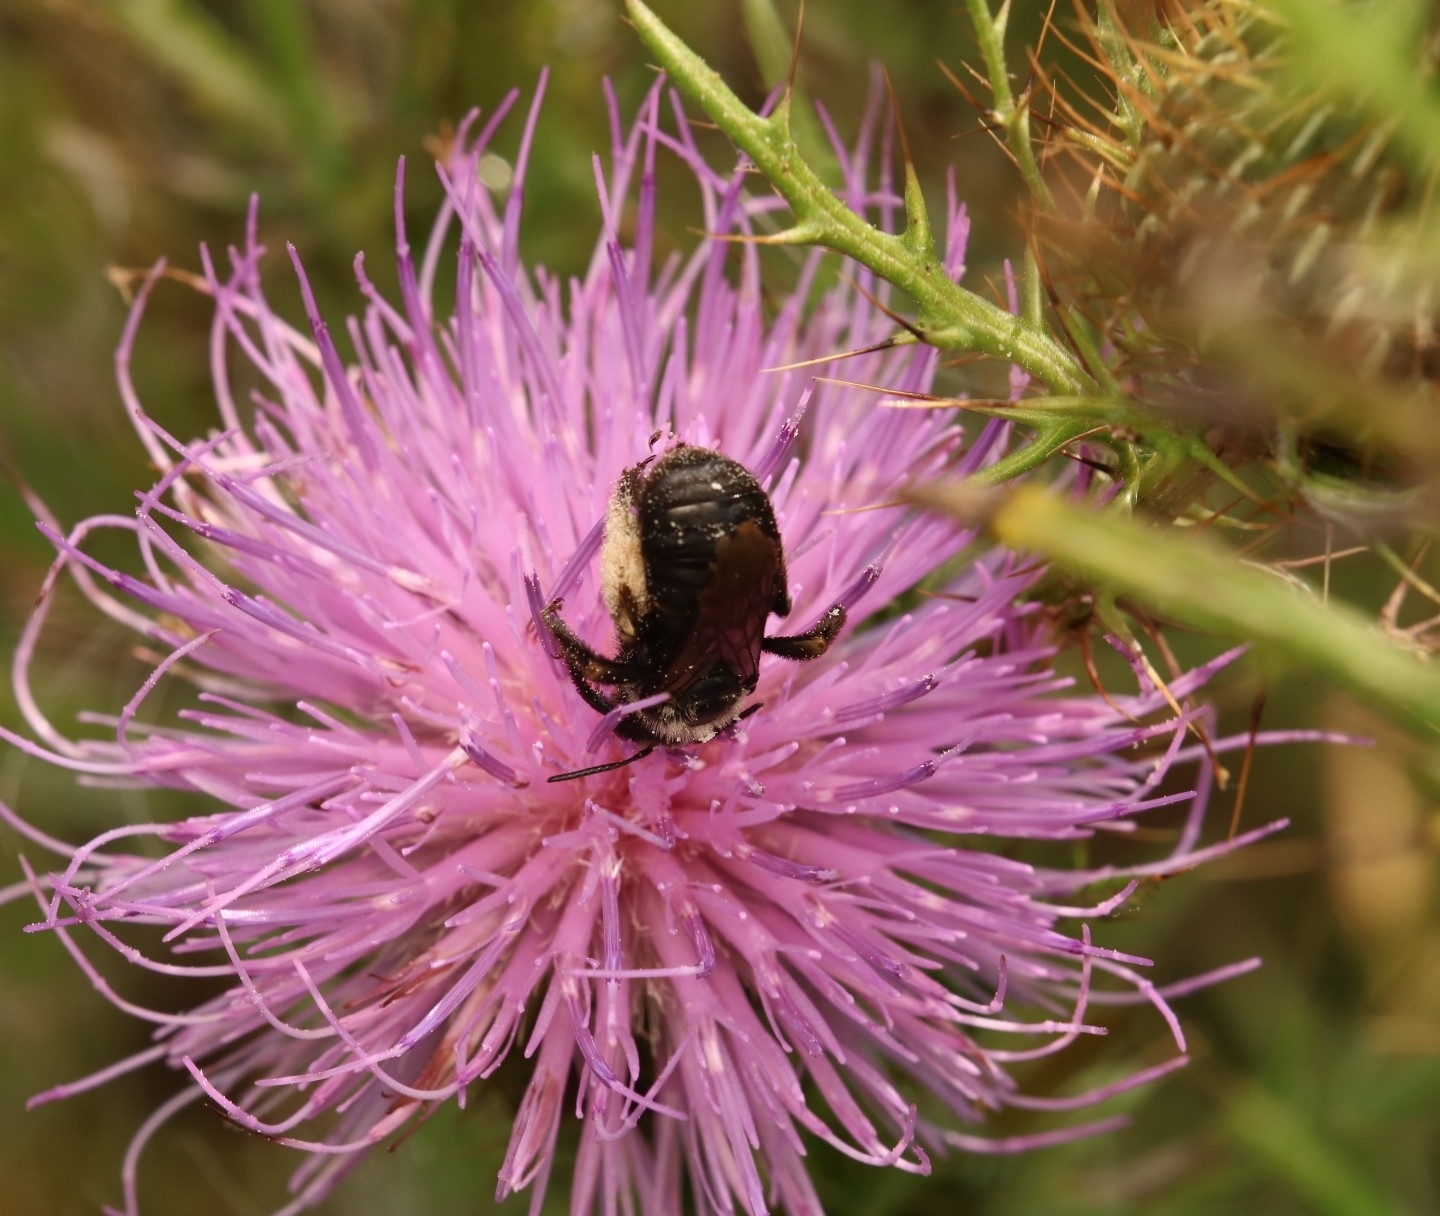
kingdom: Animalia
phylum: Arthropoda
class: Insecta
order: Hymenoptera
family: Apidae
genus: Melissodes
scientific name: Melissodes desponsus
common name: Thistle long-horned bee
